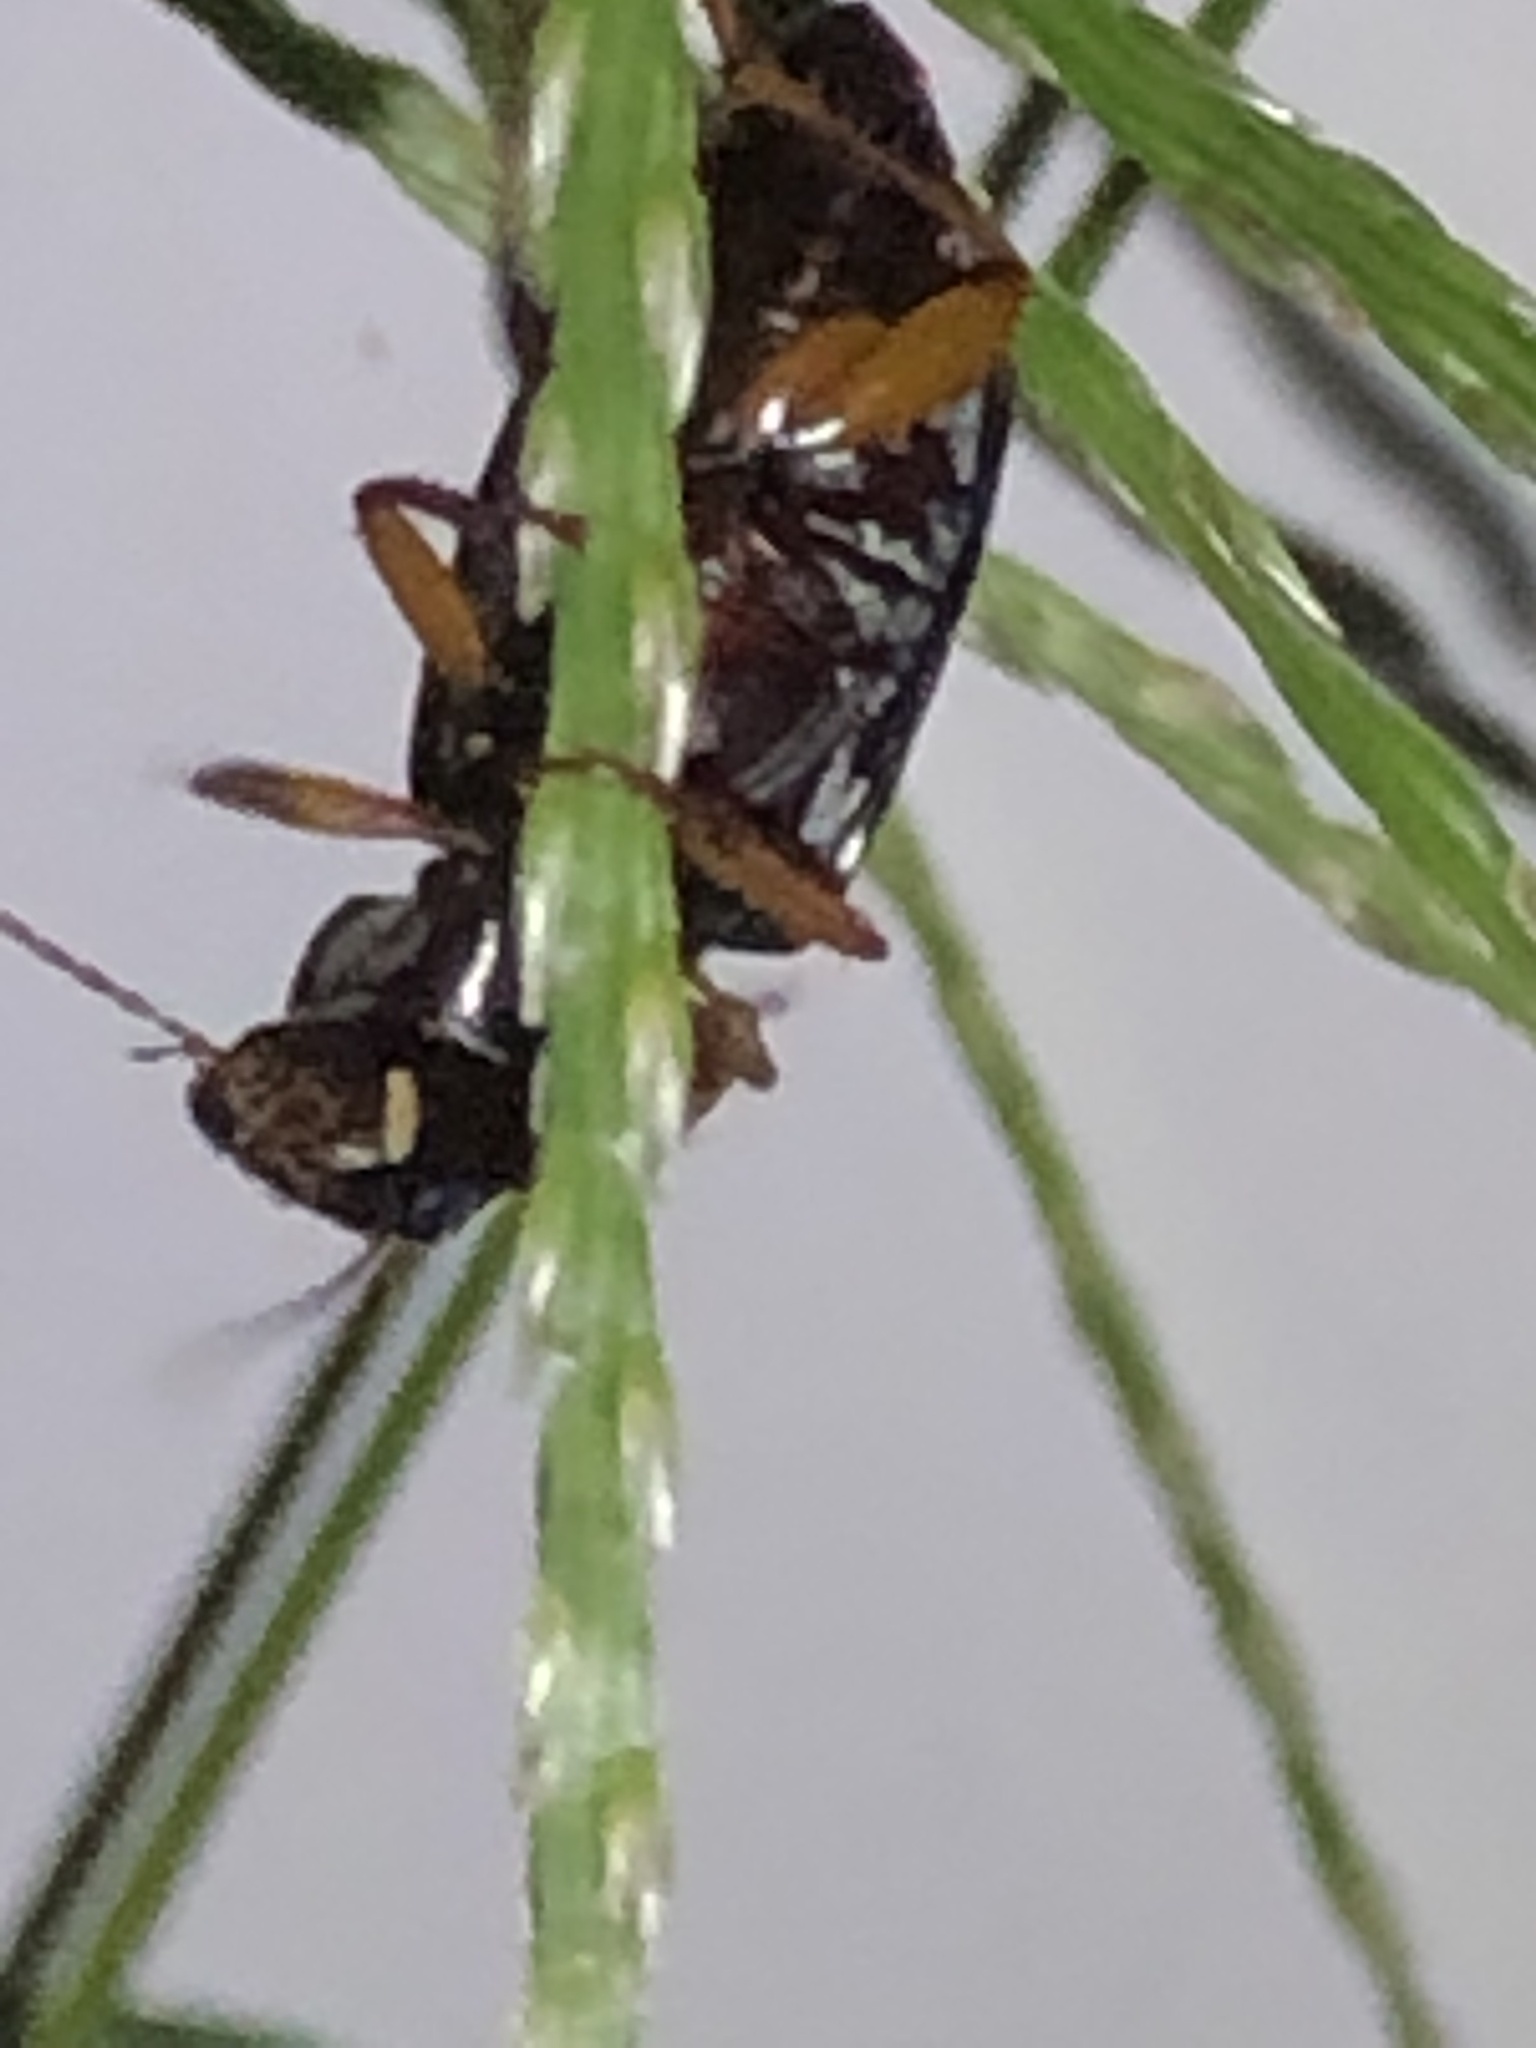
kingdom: Animalia
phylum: Arthropoda
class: Insecta
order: Coleoptera
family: Carabidae
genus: Harpalus
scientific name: Harpalus pensylvanicus
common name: Pennsylvania dingy ground beetle
